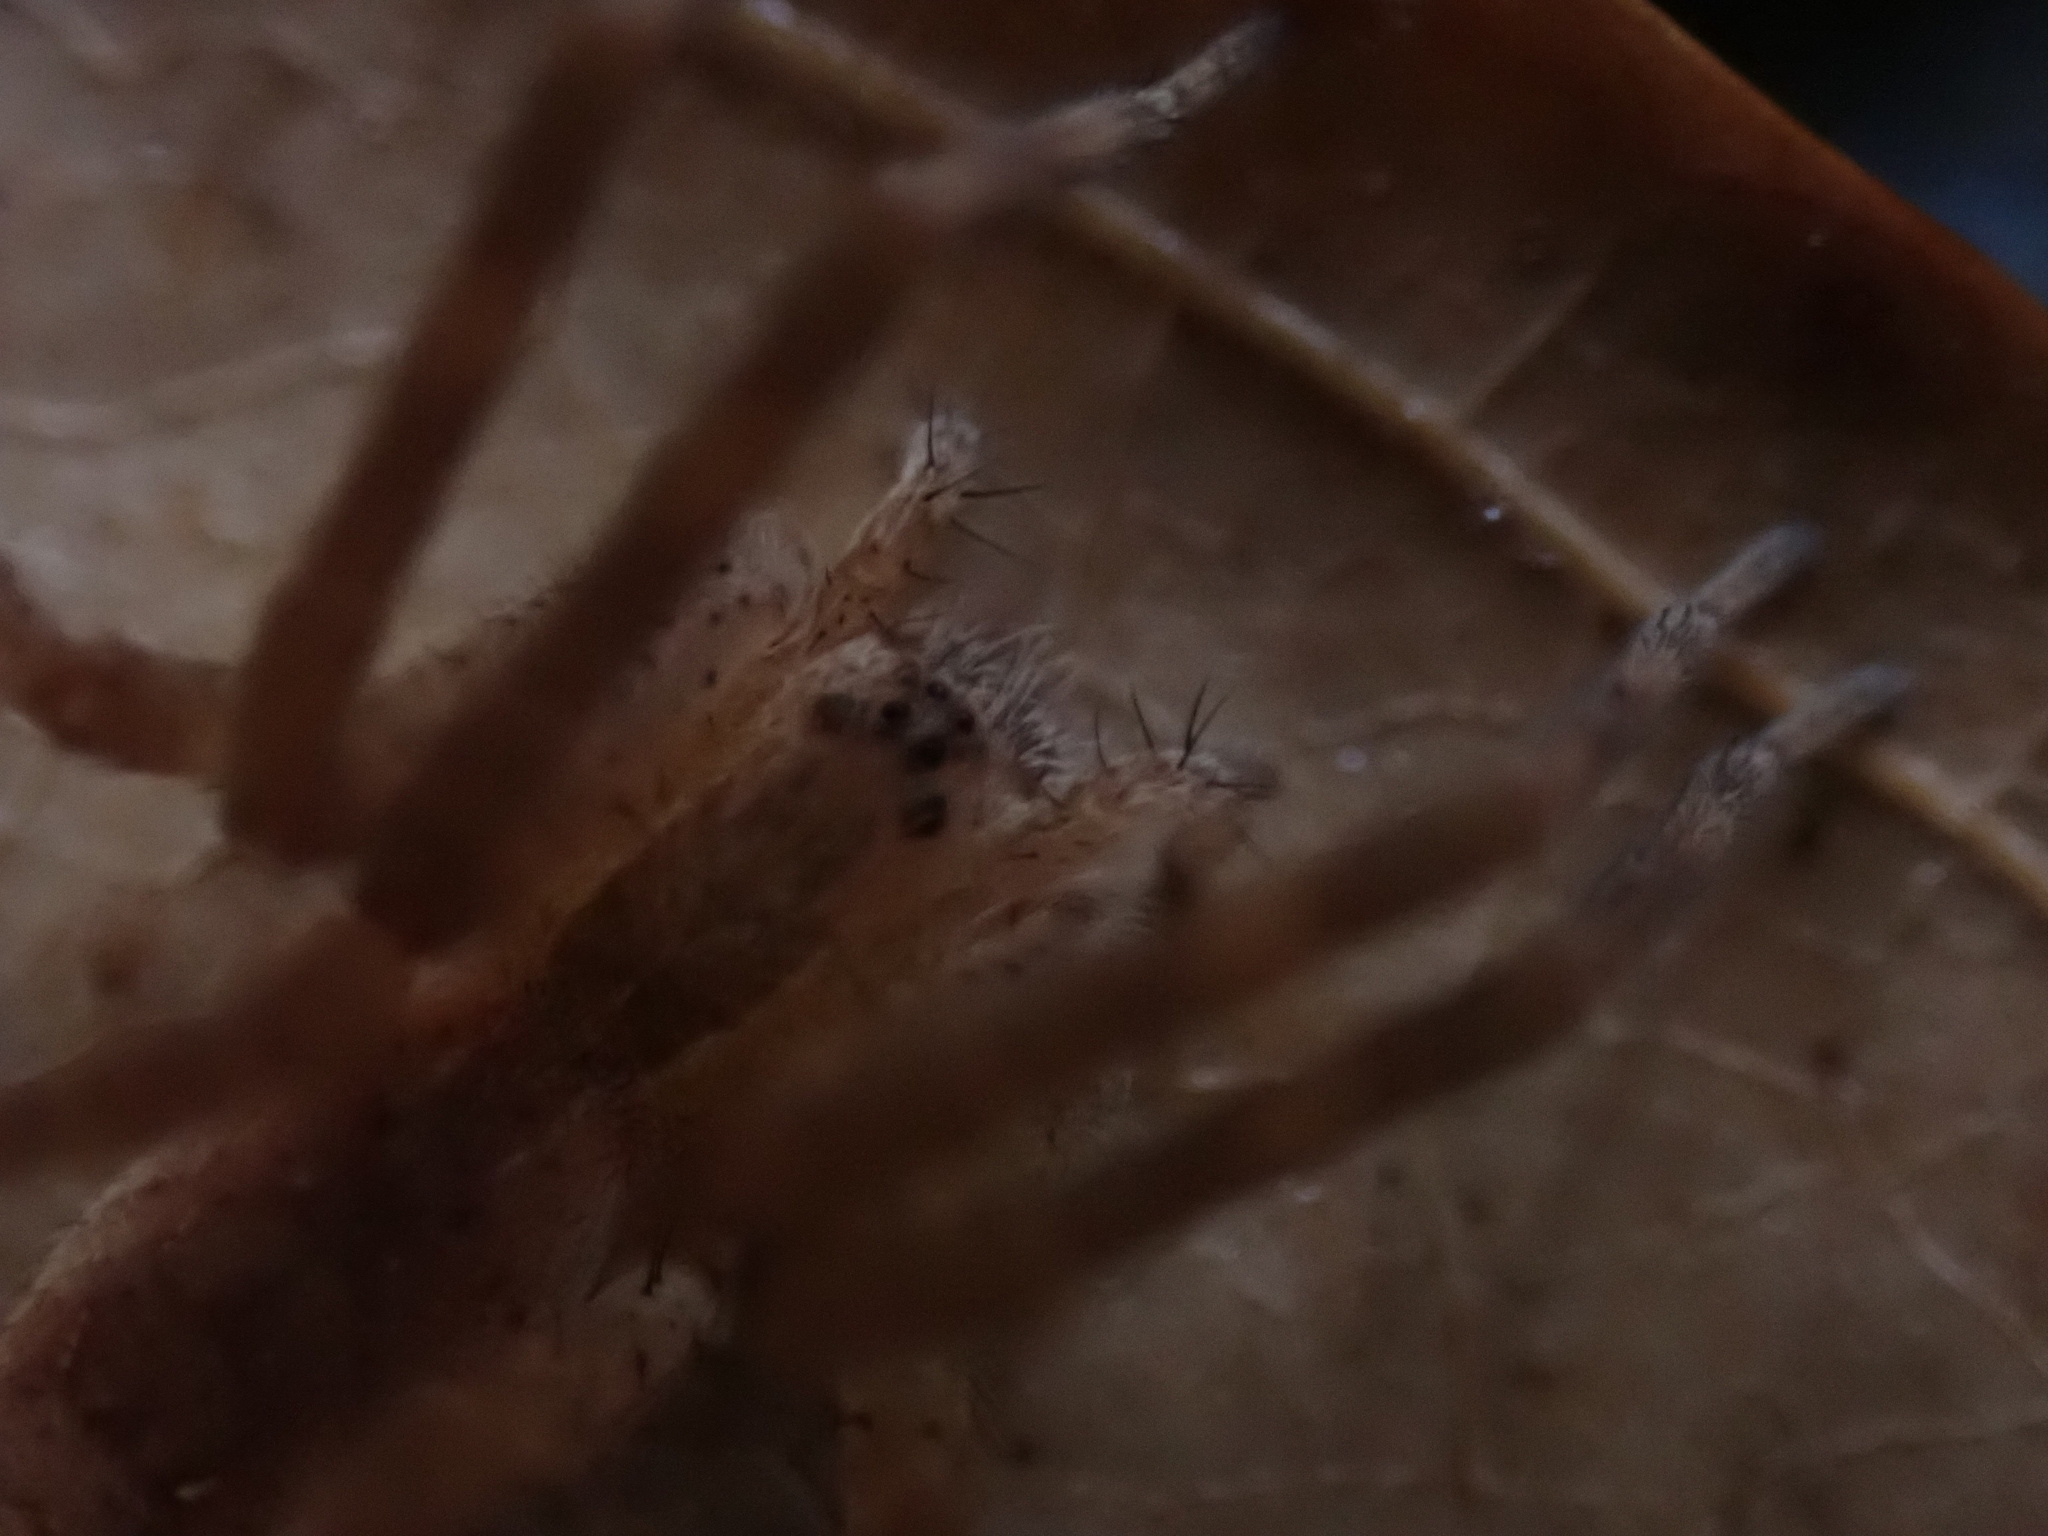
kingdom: Animalia
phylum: Arthropoda
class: Arachnida
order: Araneae
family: Pisauridae
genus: Pisaurina
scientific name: Pisaurina mira
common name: American nursery web spider
